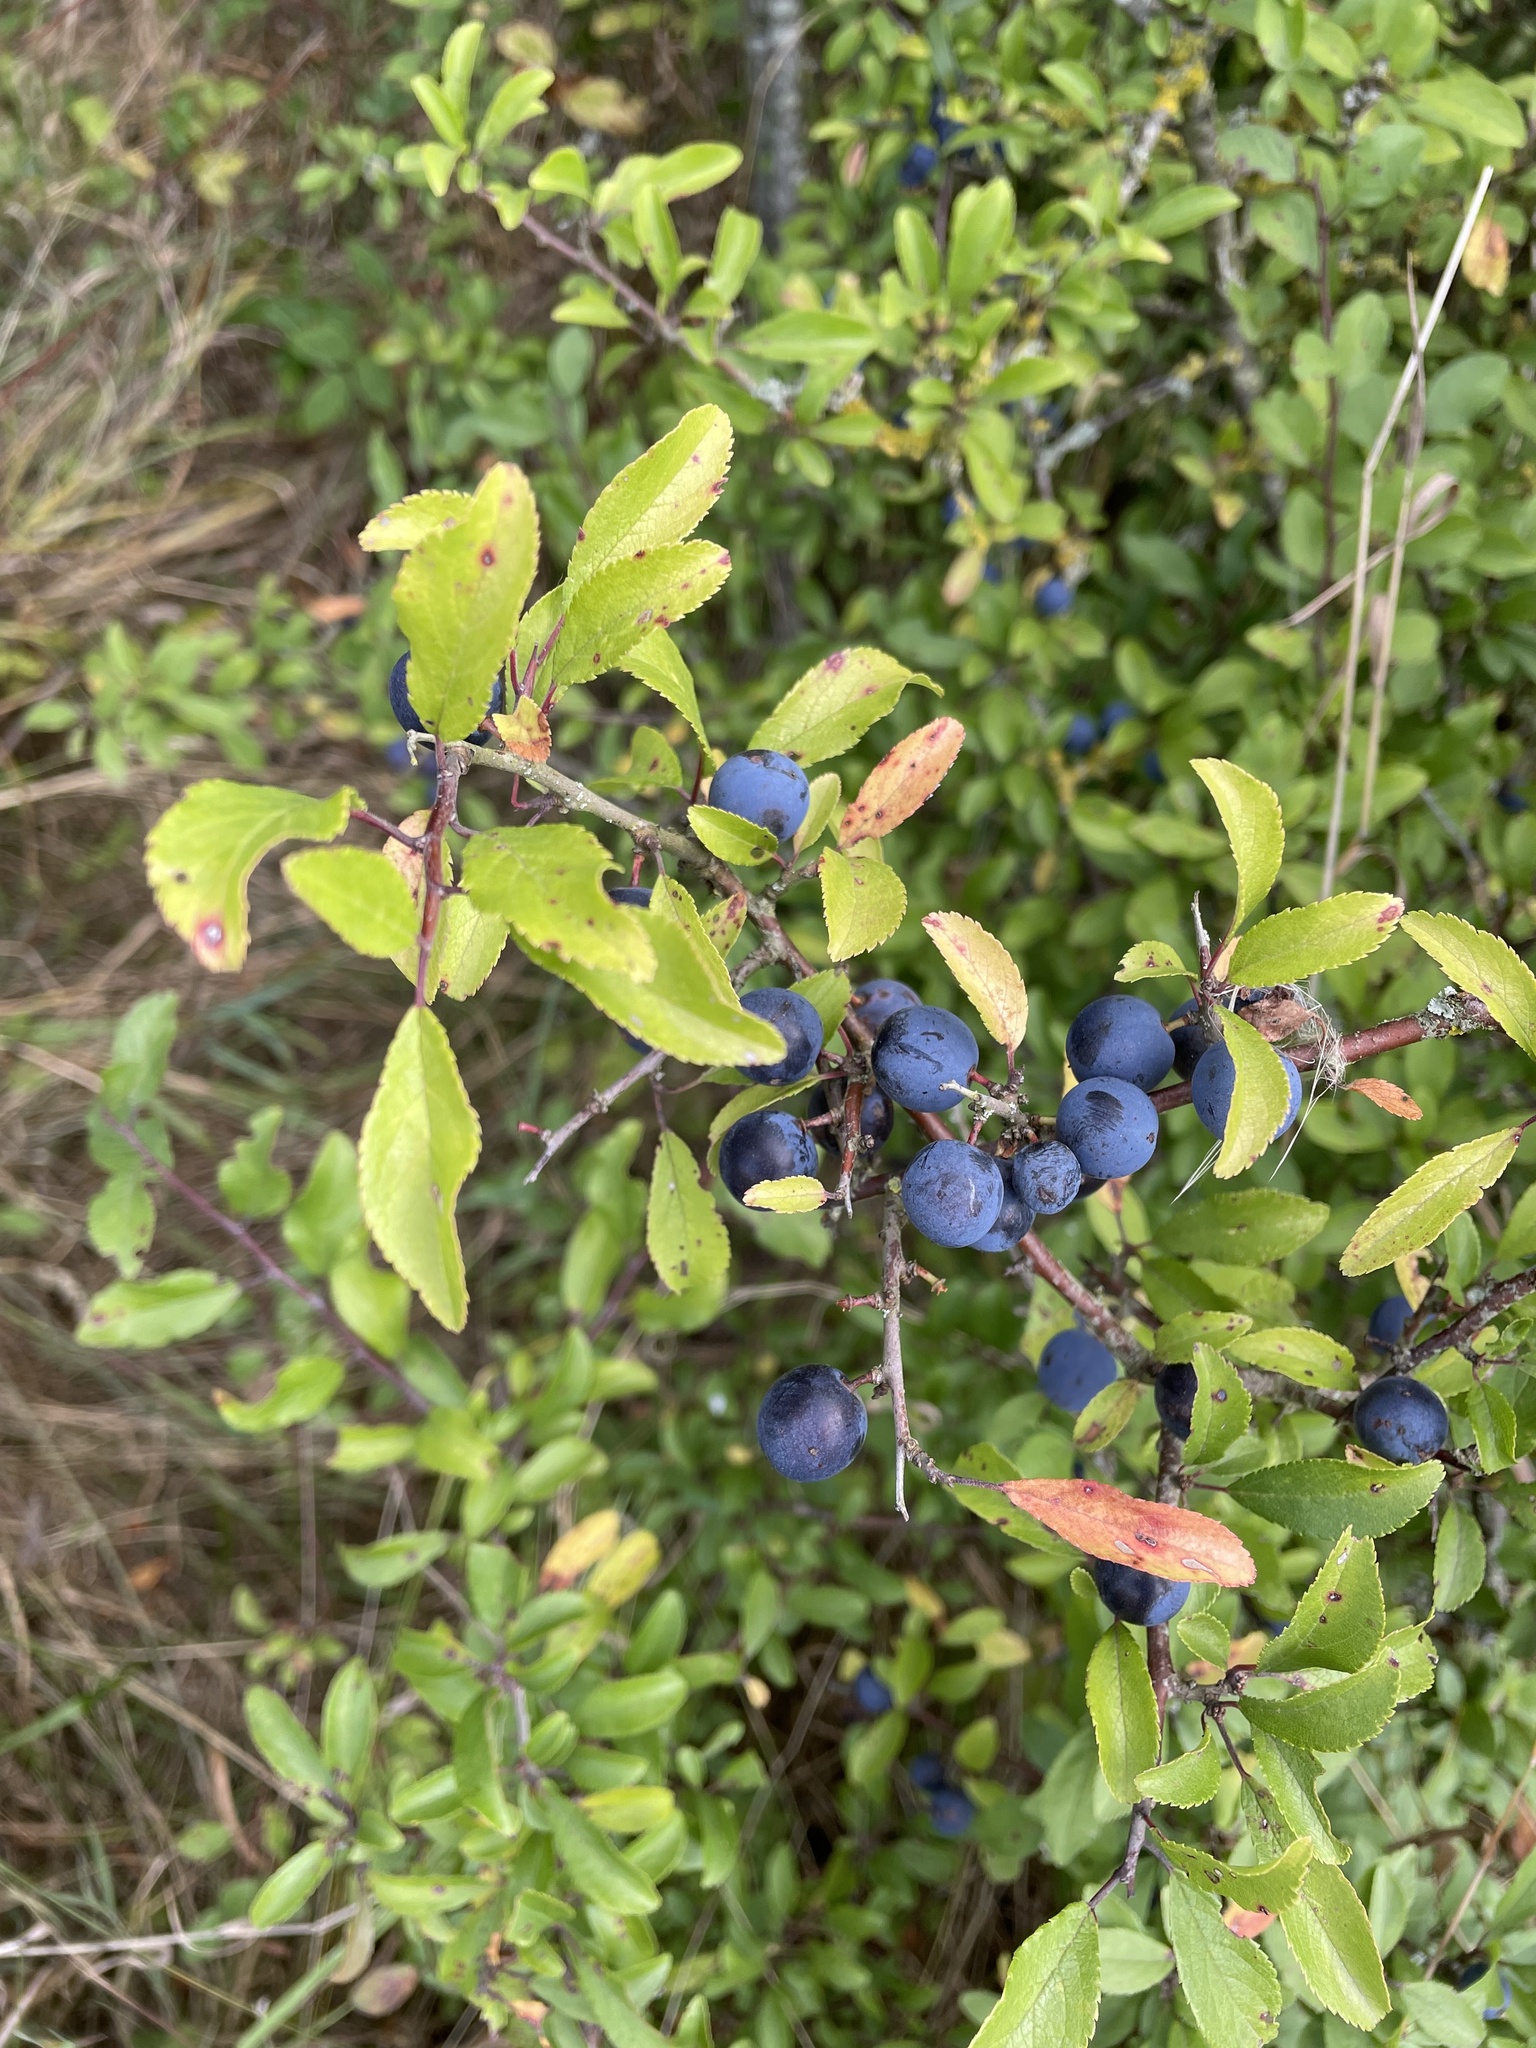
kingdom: Plantae
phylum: Tracheophyta
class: Magnoliopsida
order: Rosales
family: Rosaceae
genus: Prunus
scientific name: Prunus spinosa
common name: Blackthorn
